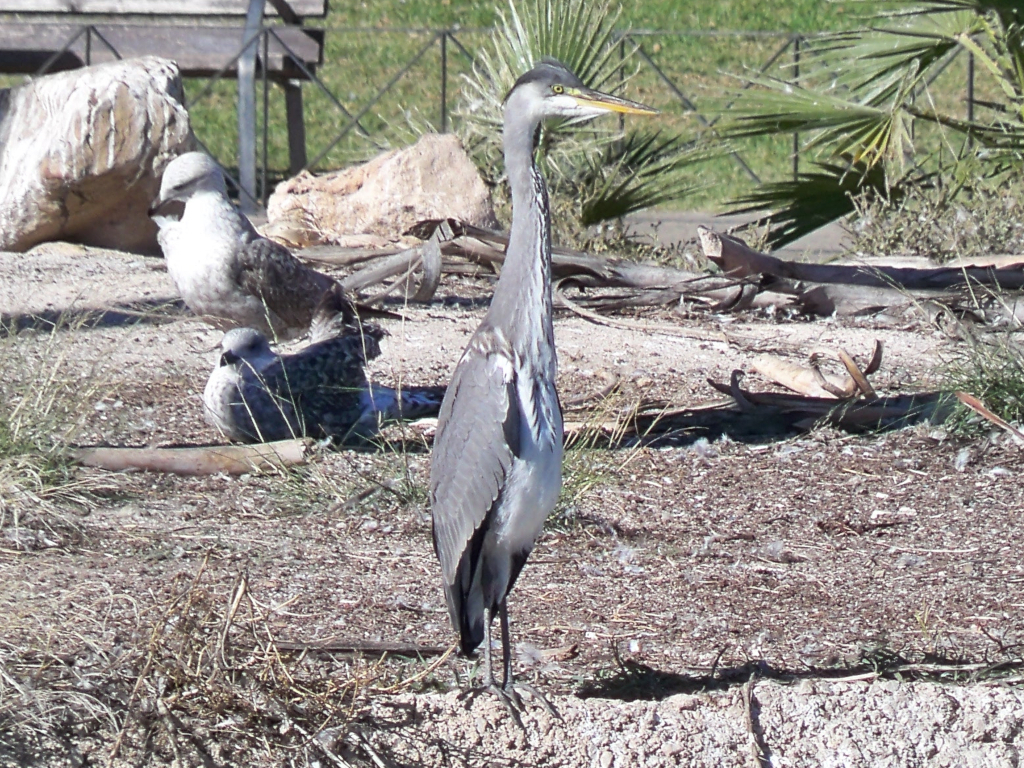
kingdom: Animalia
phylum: Chordata
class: Aves
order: Pelecaniformes
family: Ardeidae
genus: Ardea
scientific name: Ardea cinerea
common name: Grey heron
